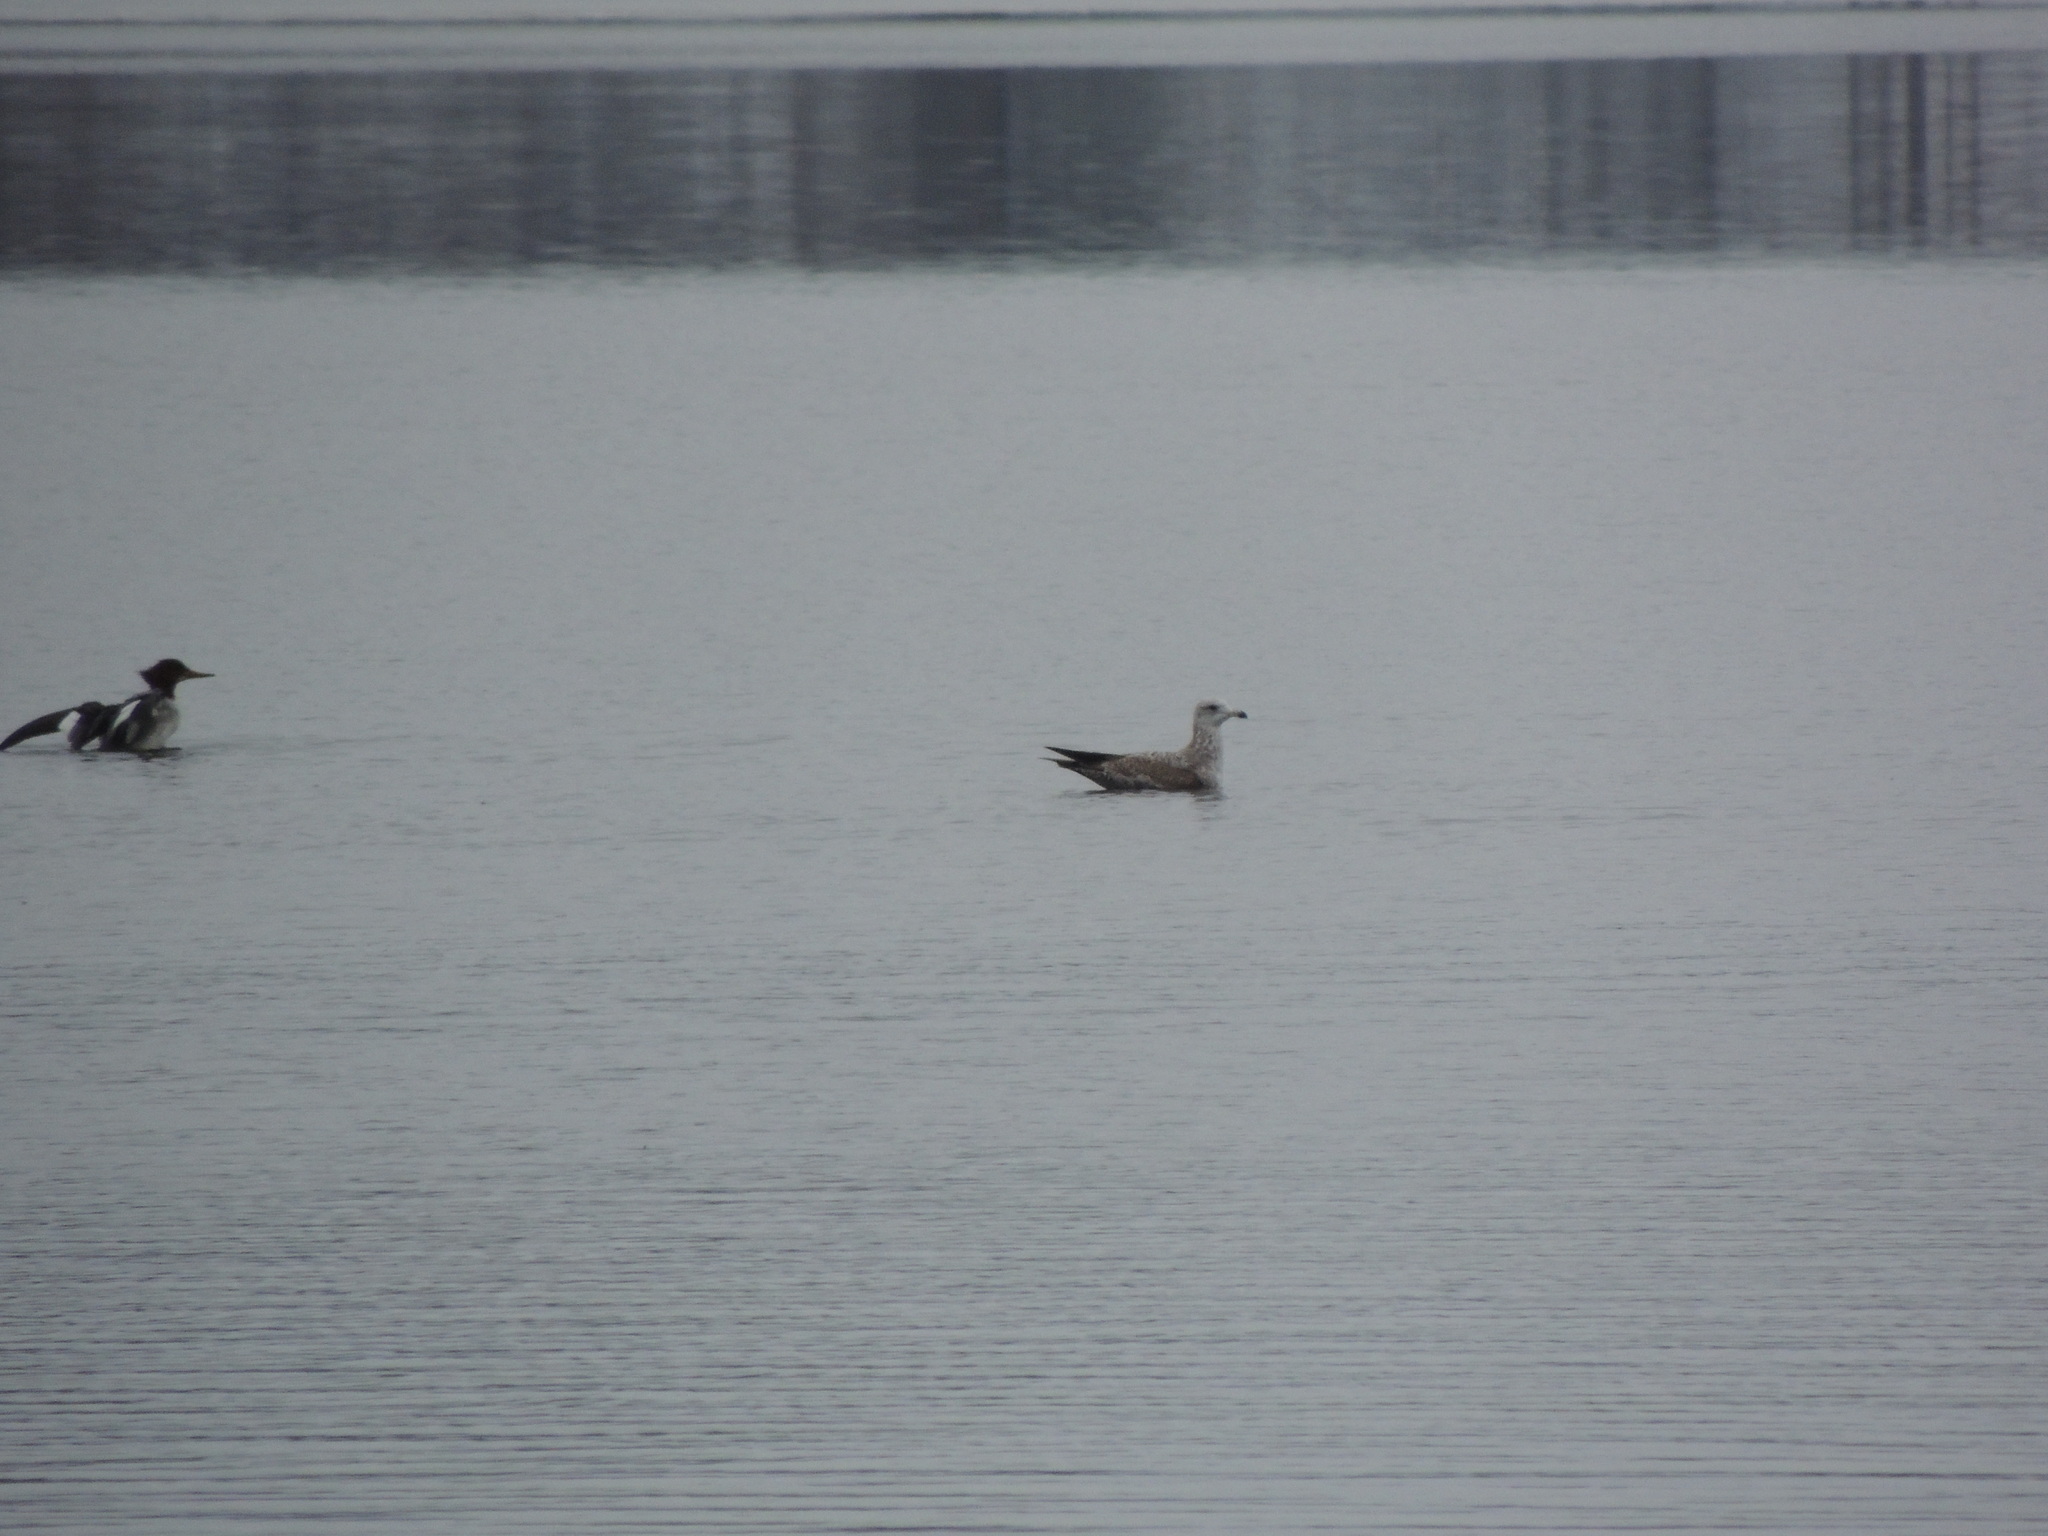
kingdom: Animalia
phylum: Chordata
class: Aves
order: Charadriiformes
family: Laridae
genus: Larus
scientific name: Larus argentatus
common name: Herring gull
